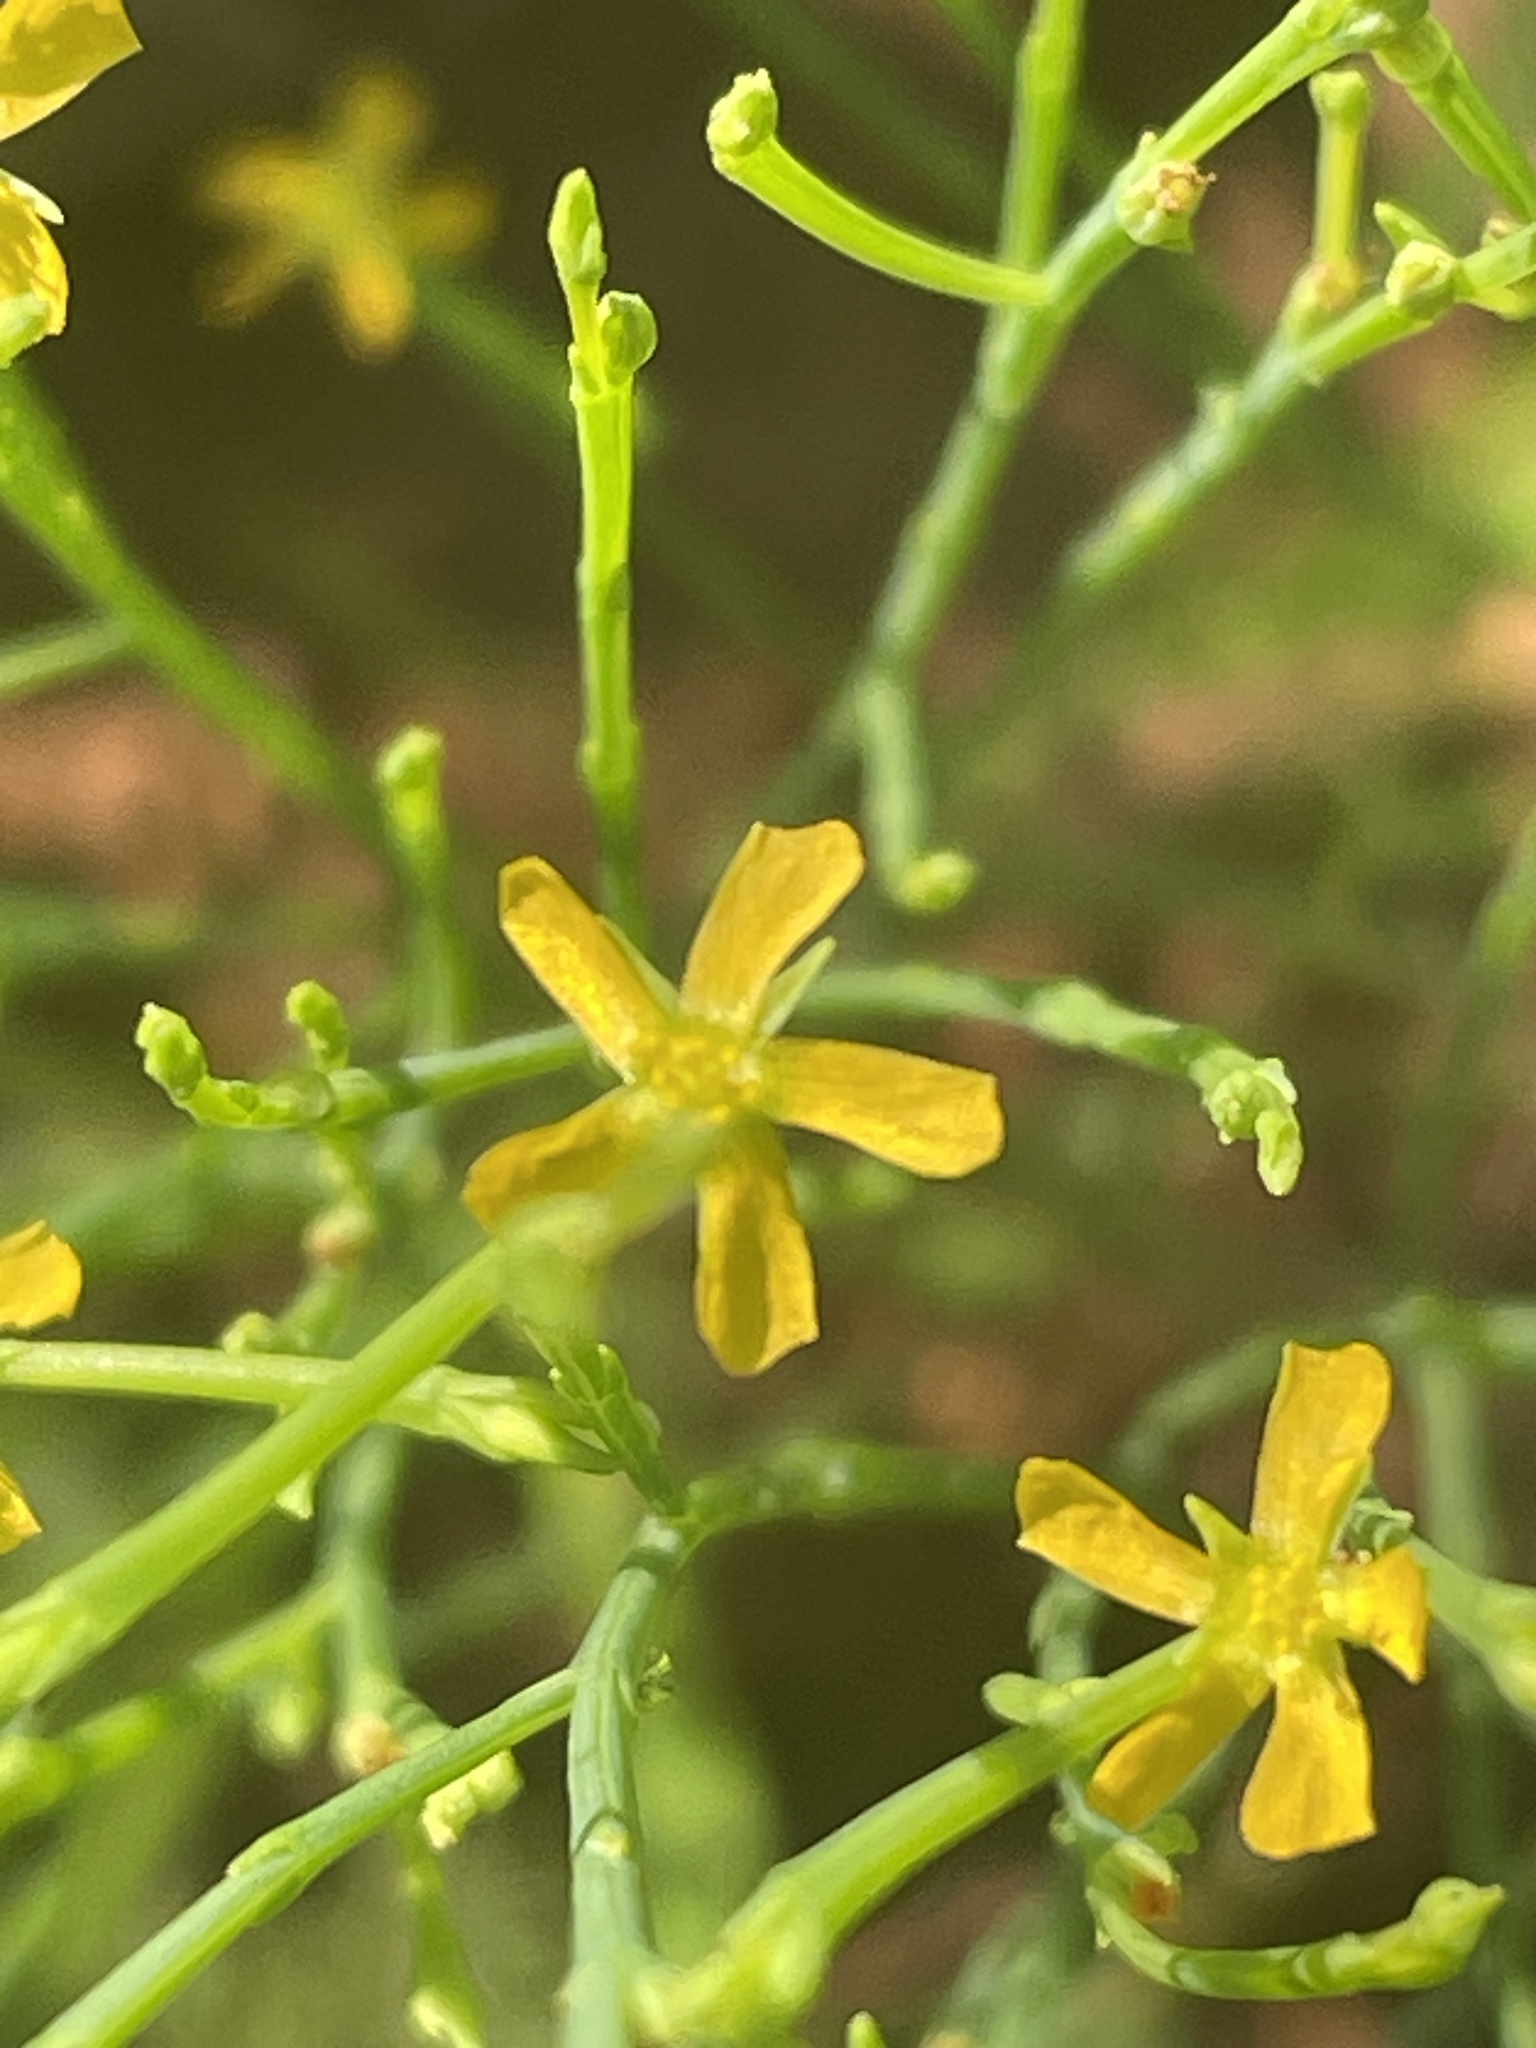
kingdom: Plantae
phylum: Tracheophyta
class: Magnoliopsida
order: Malpighiales
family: Hypericaceae
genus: Hypericum
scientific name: Hypericum gentianoides
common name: Gentian-leaved st. john's-wort
